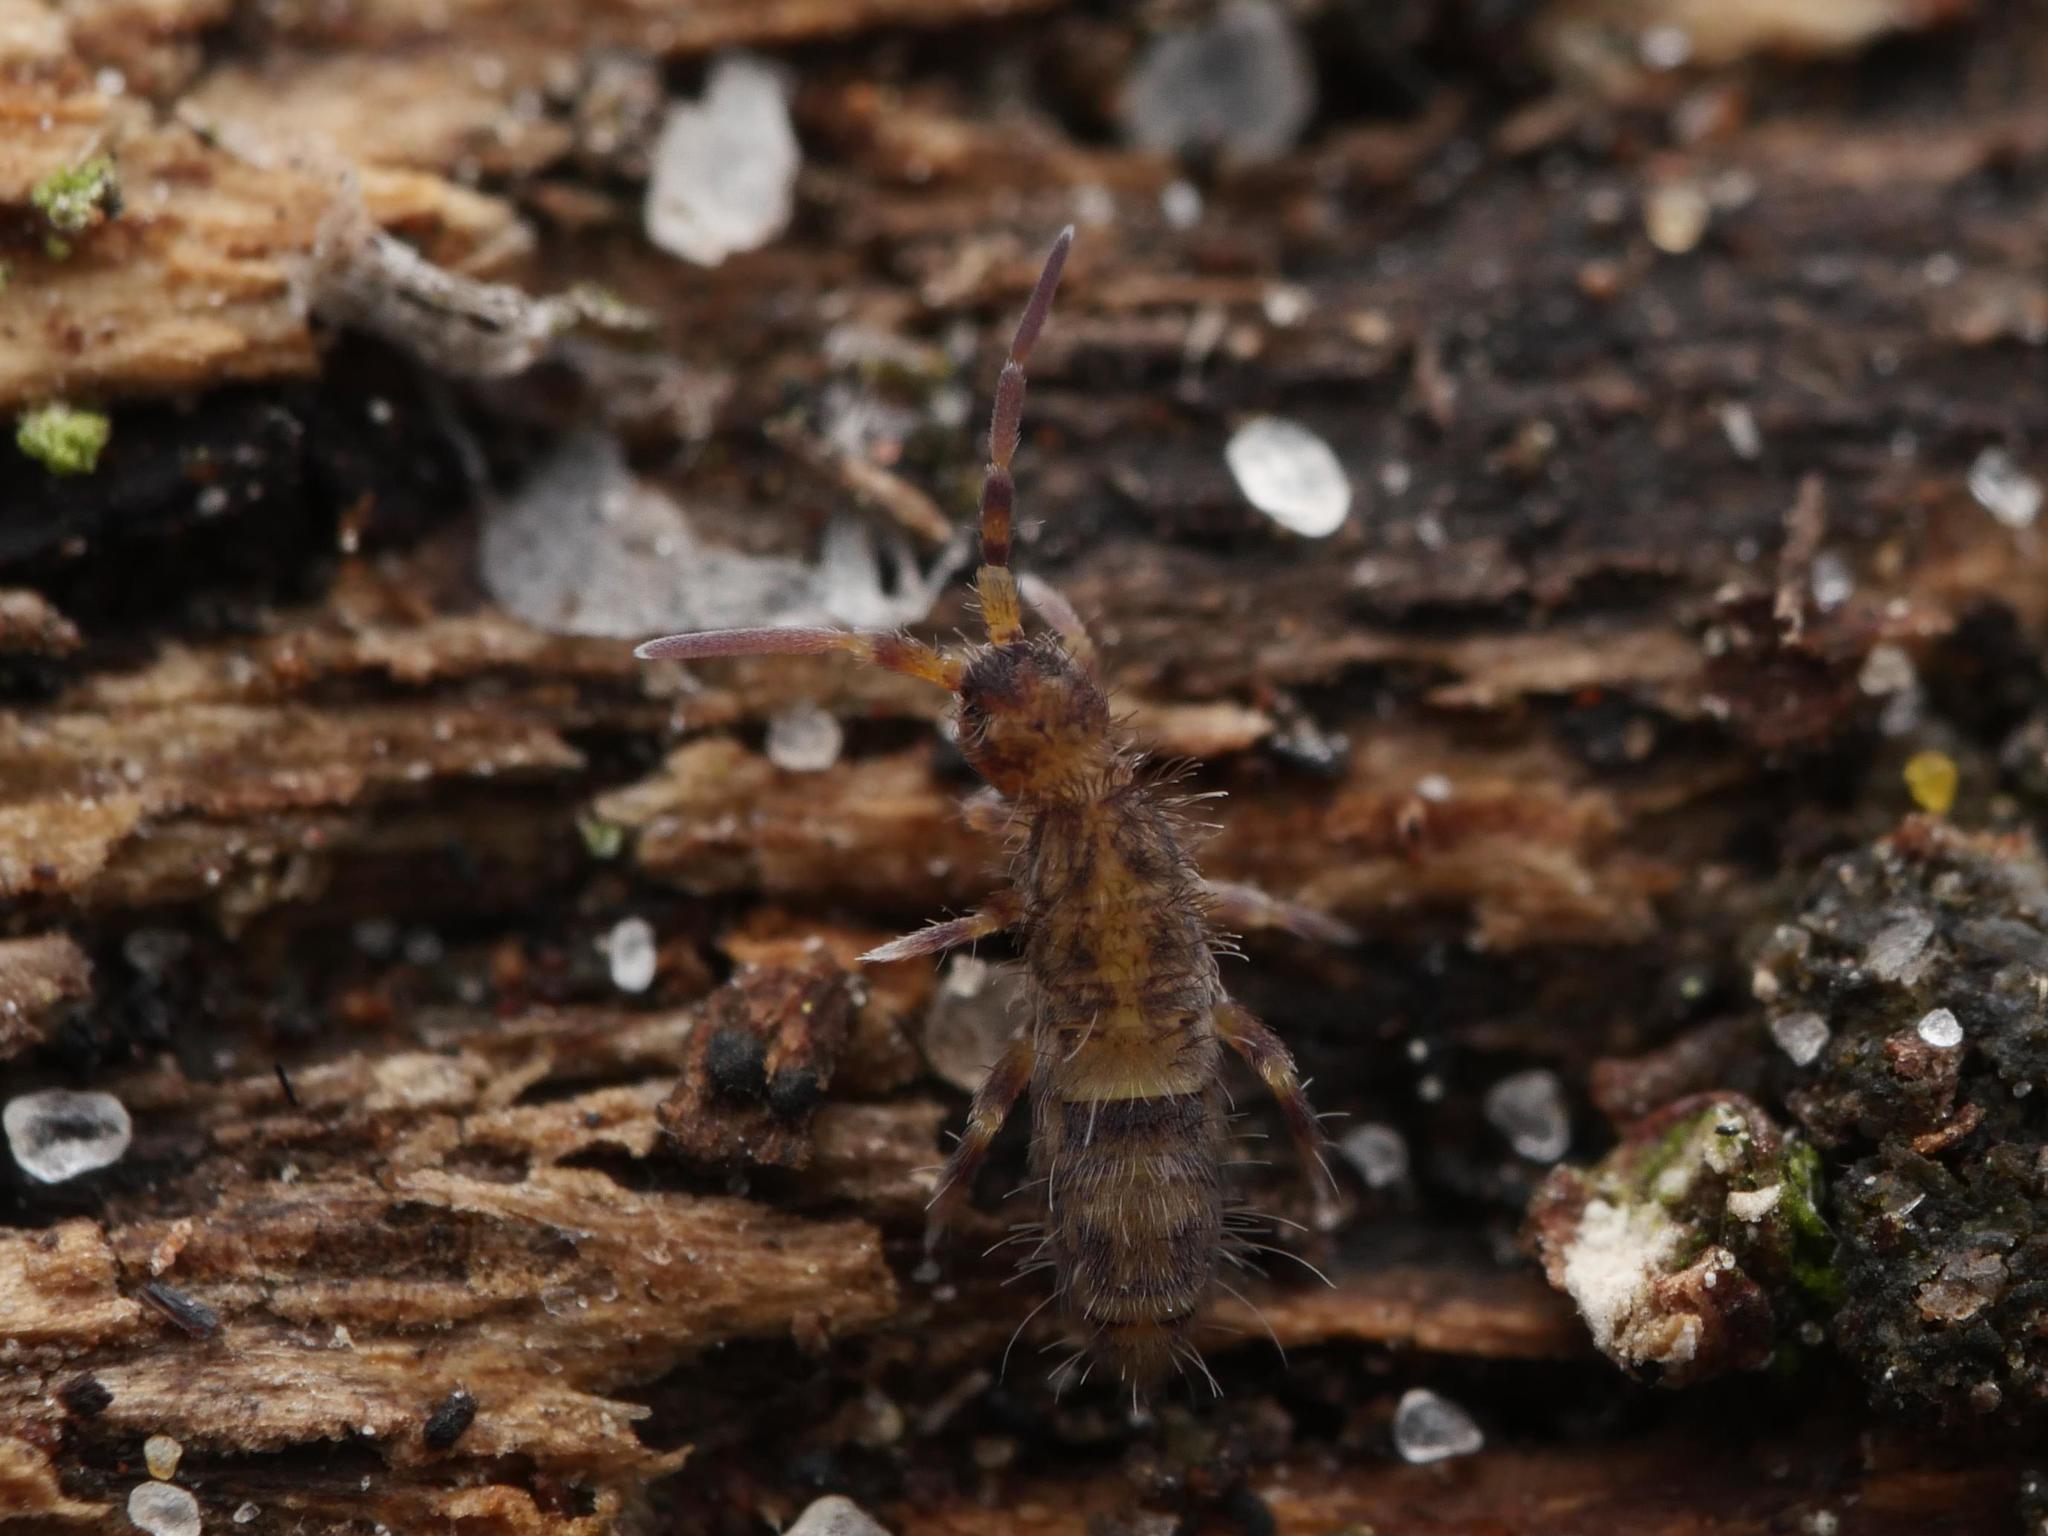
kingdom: Animalia
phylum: Arthropoda
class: Collembola
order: Entomobryomorpha
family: Orchesellidae
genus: Orchesella
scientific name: Orchesella cincta
